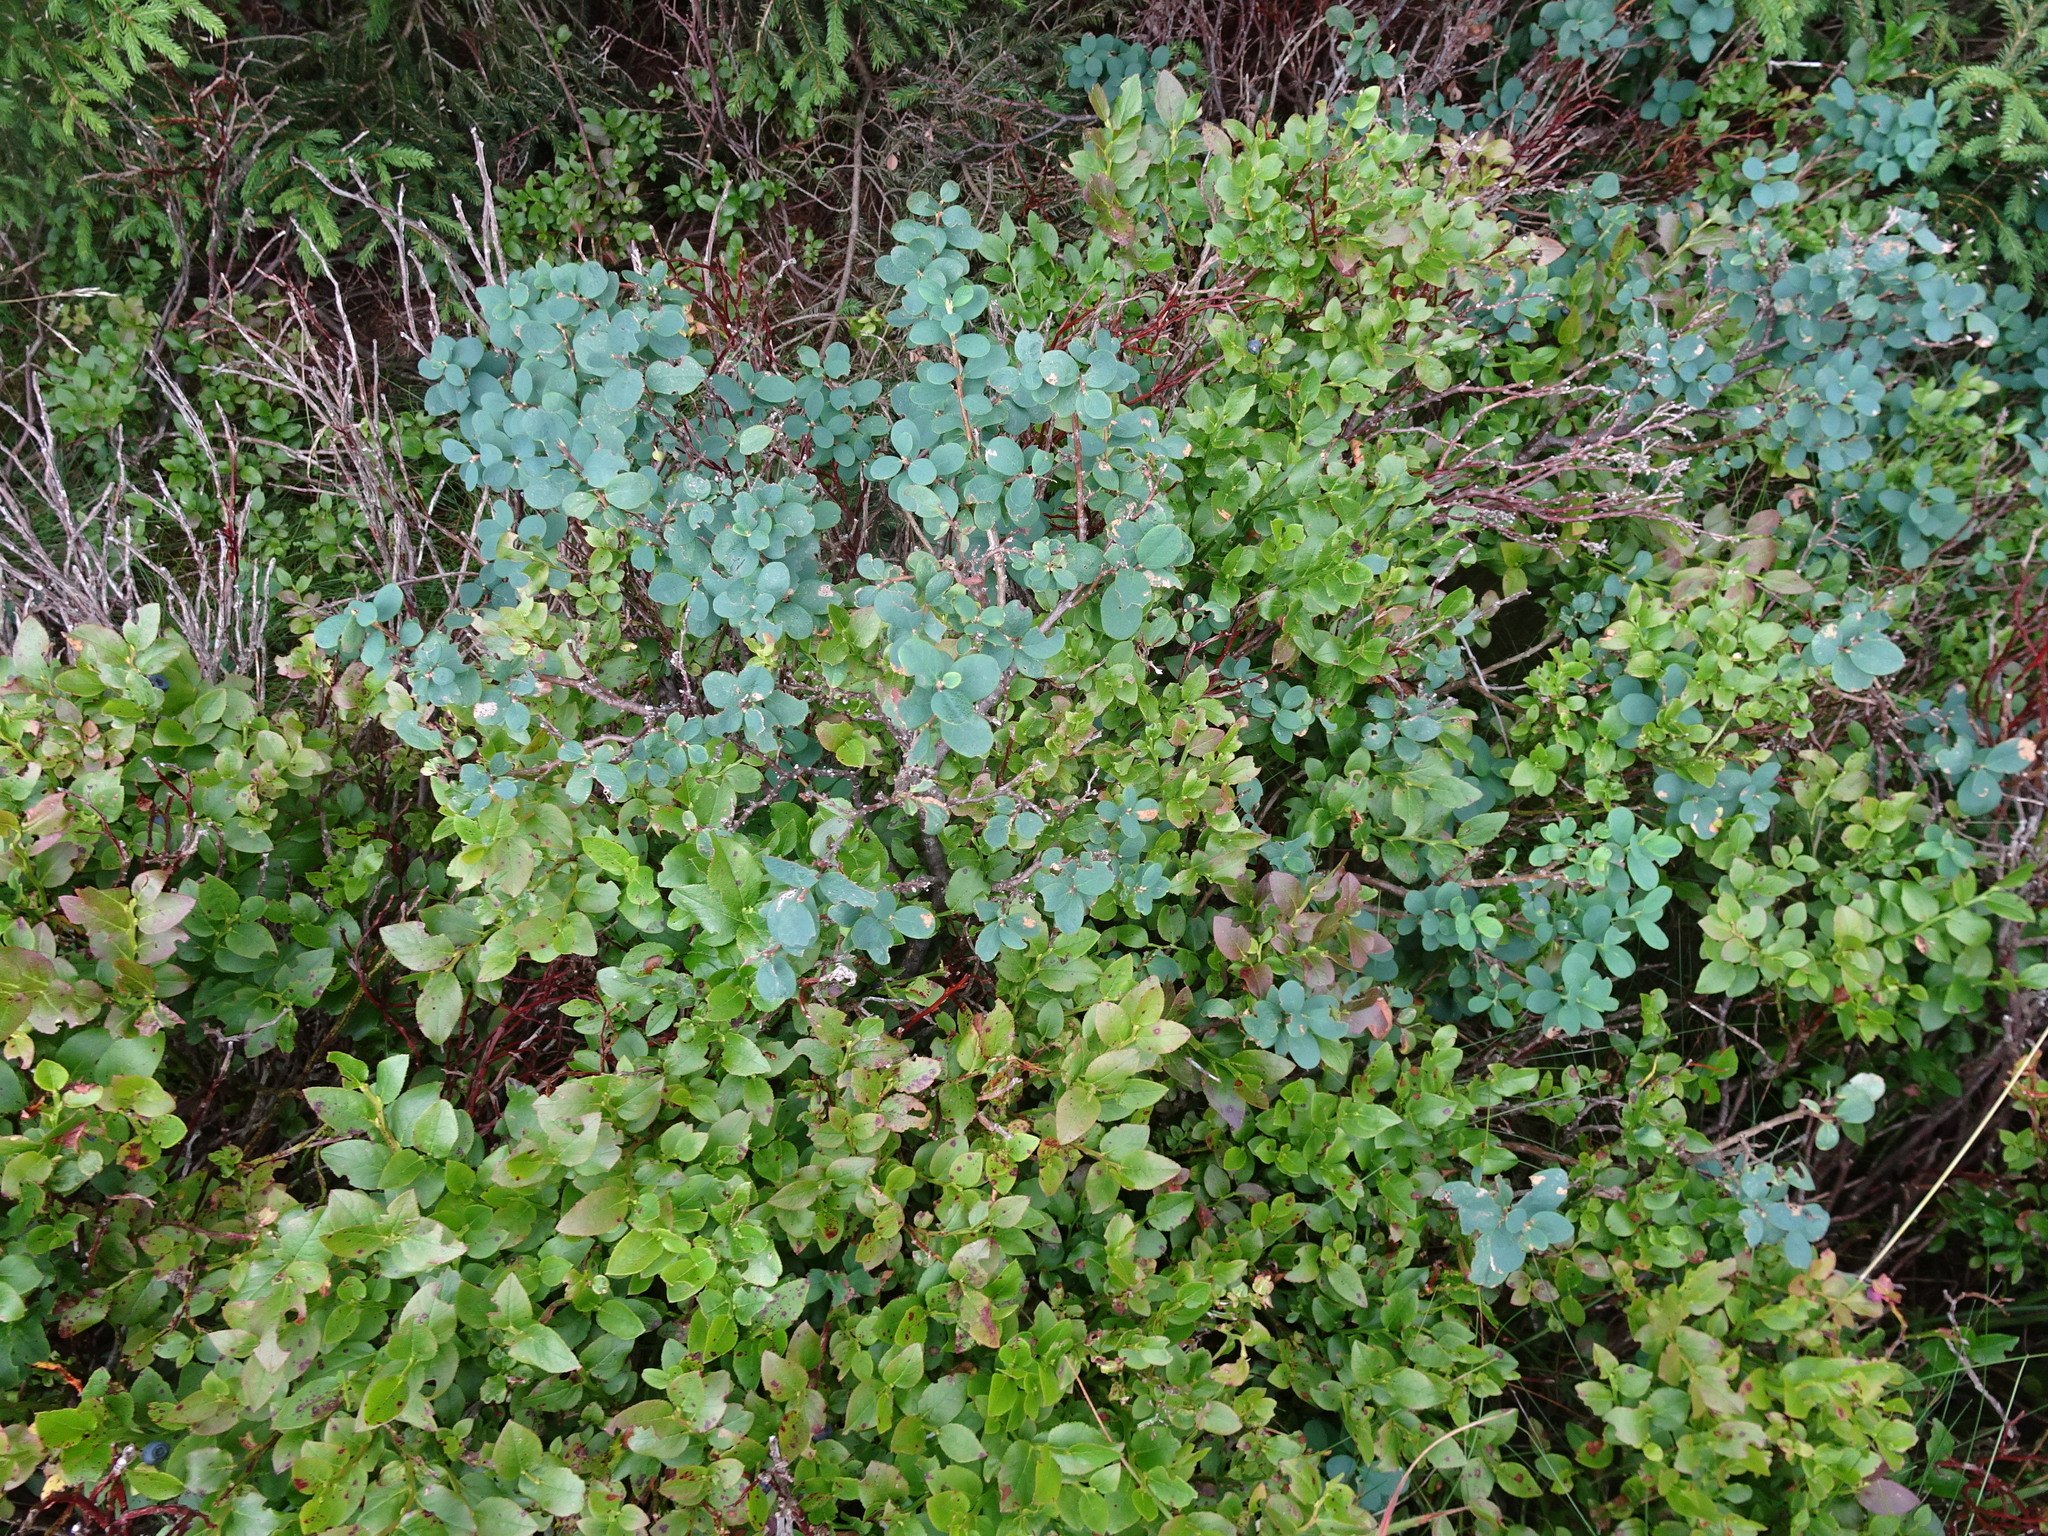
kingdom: Plantae
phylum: Tracheophyta
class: Magnoliopsida
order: Ericales
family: Ericaceae
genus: Vaccinium
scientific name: Vaccinium myrtillus
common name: Bilberry
